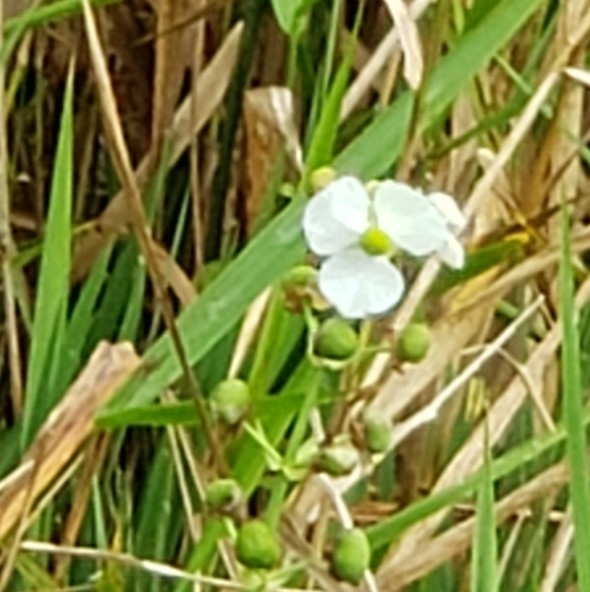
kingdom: Plantae
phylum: Tracheophyta
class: Liliopsida
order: Alismatales
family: Alismataceae
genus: Sagittaria
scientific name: Sagittaria lancifolia
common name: Lance-leaf arrowhead
